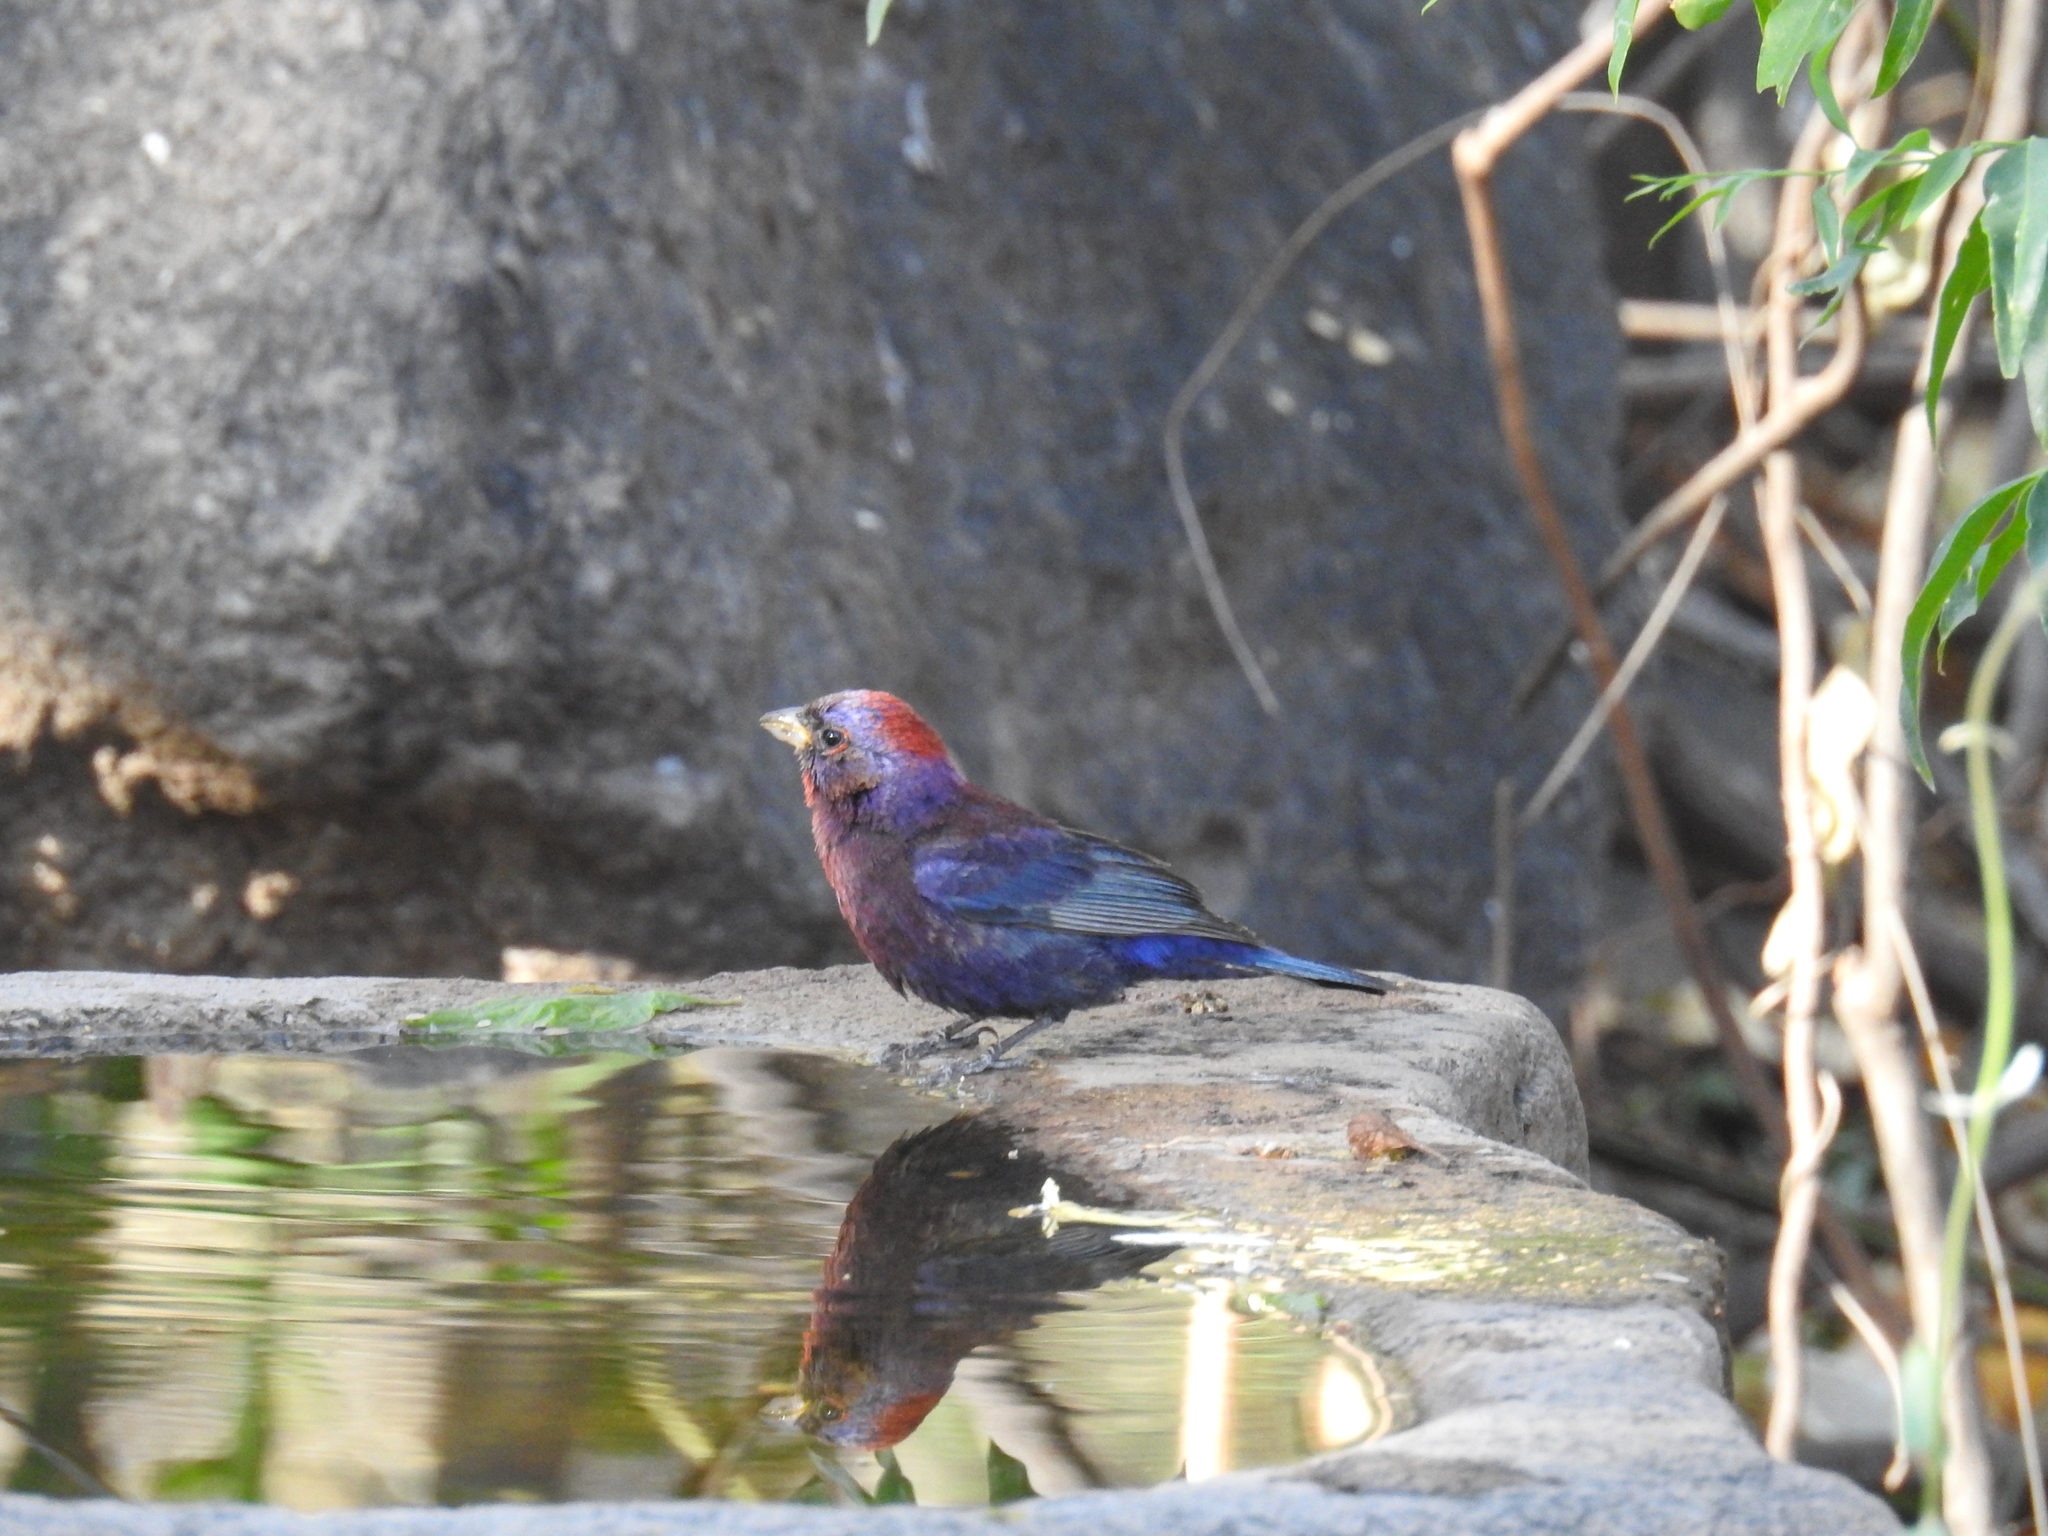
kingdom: Animalia
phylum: Chordata
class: Aves
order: Passeriformes
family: Cardinalidae
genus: Passerina
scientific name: Passerina versicolor
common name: Varied bunting
